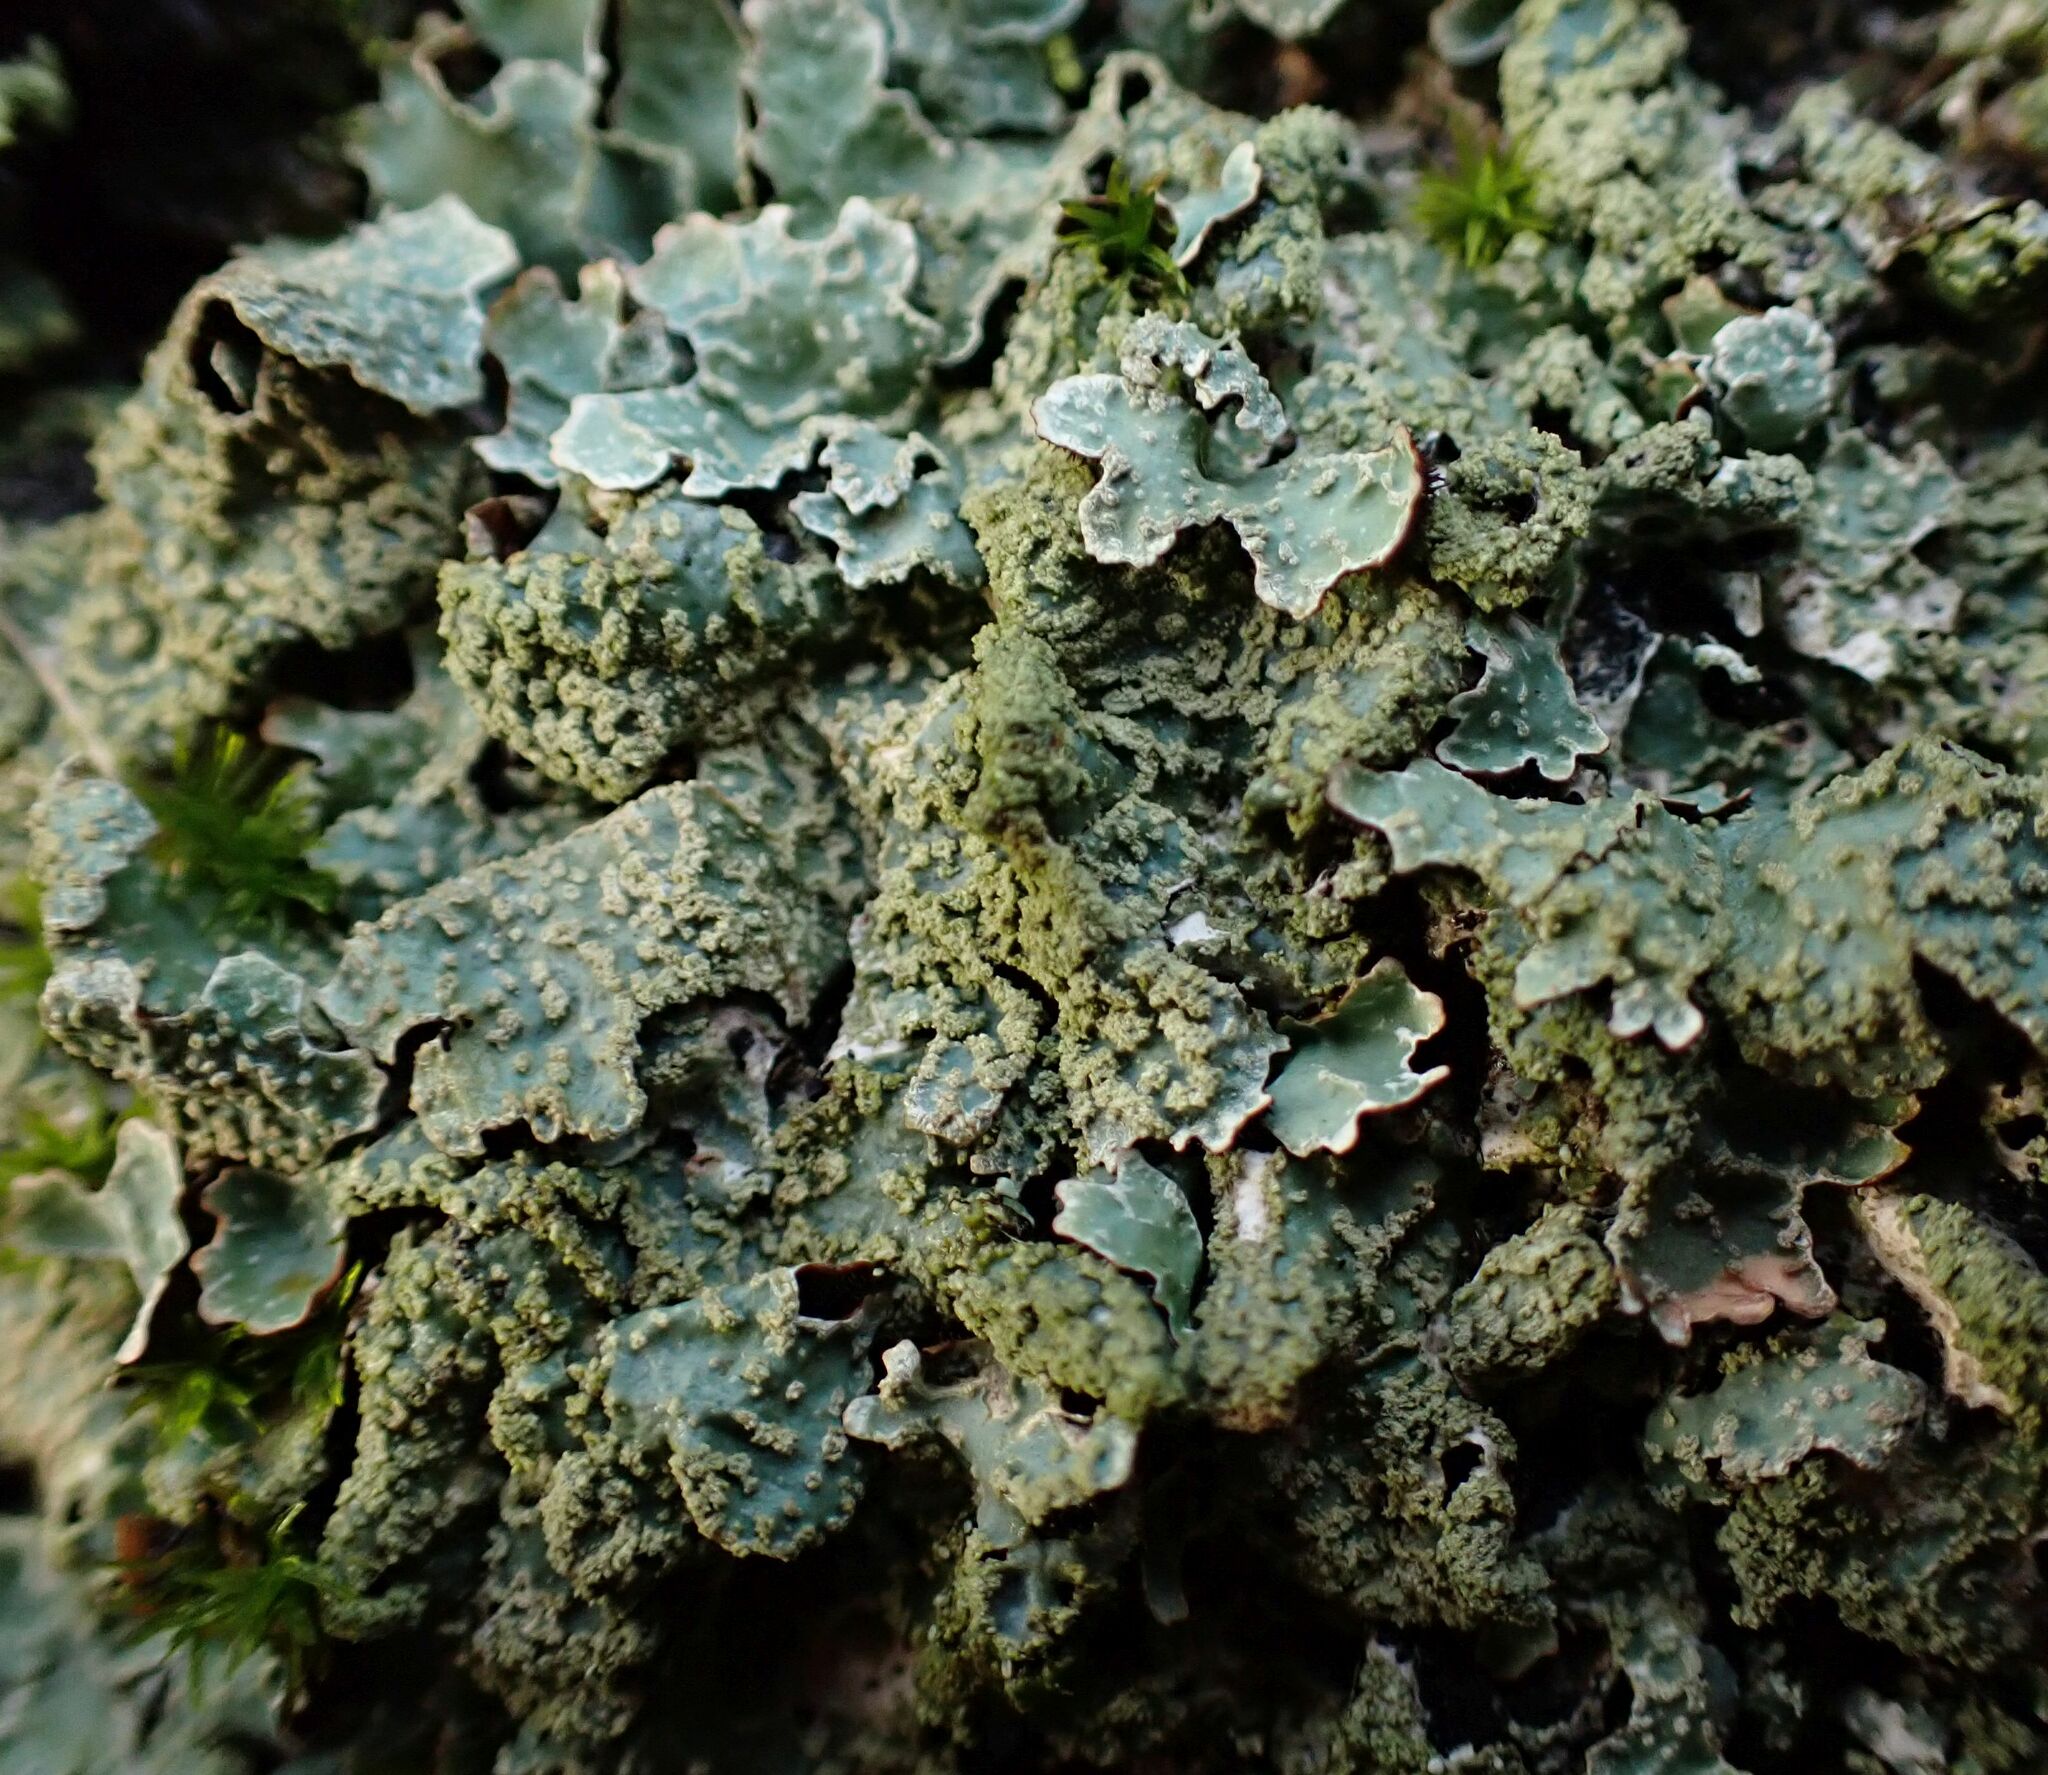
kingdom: Fungi
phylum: Ascomycota
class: Lecanoromycetes
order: Lecanorales
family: Parmeliaceae
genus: Parmelia
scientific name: Parmelia sulcata
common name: Netted shield lichen
